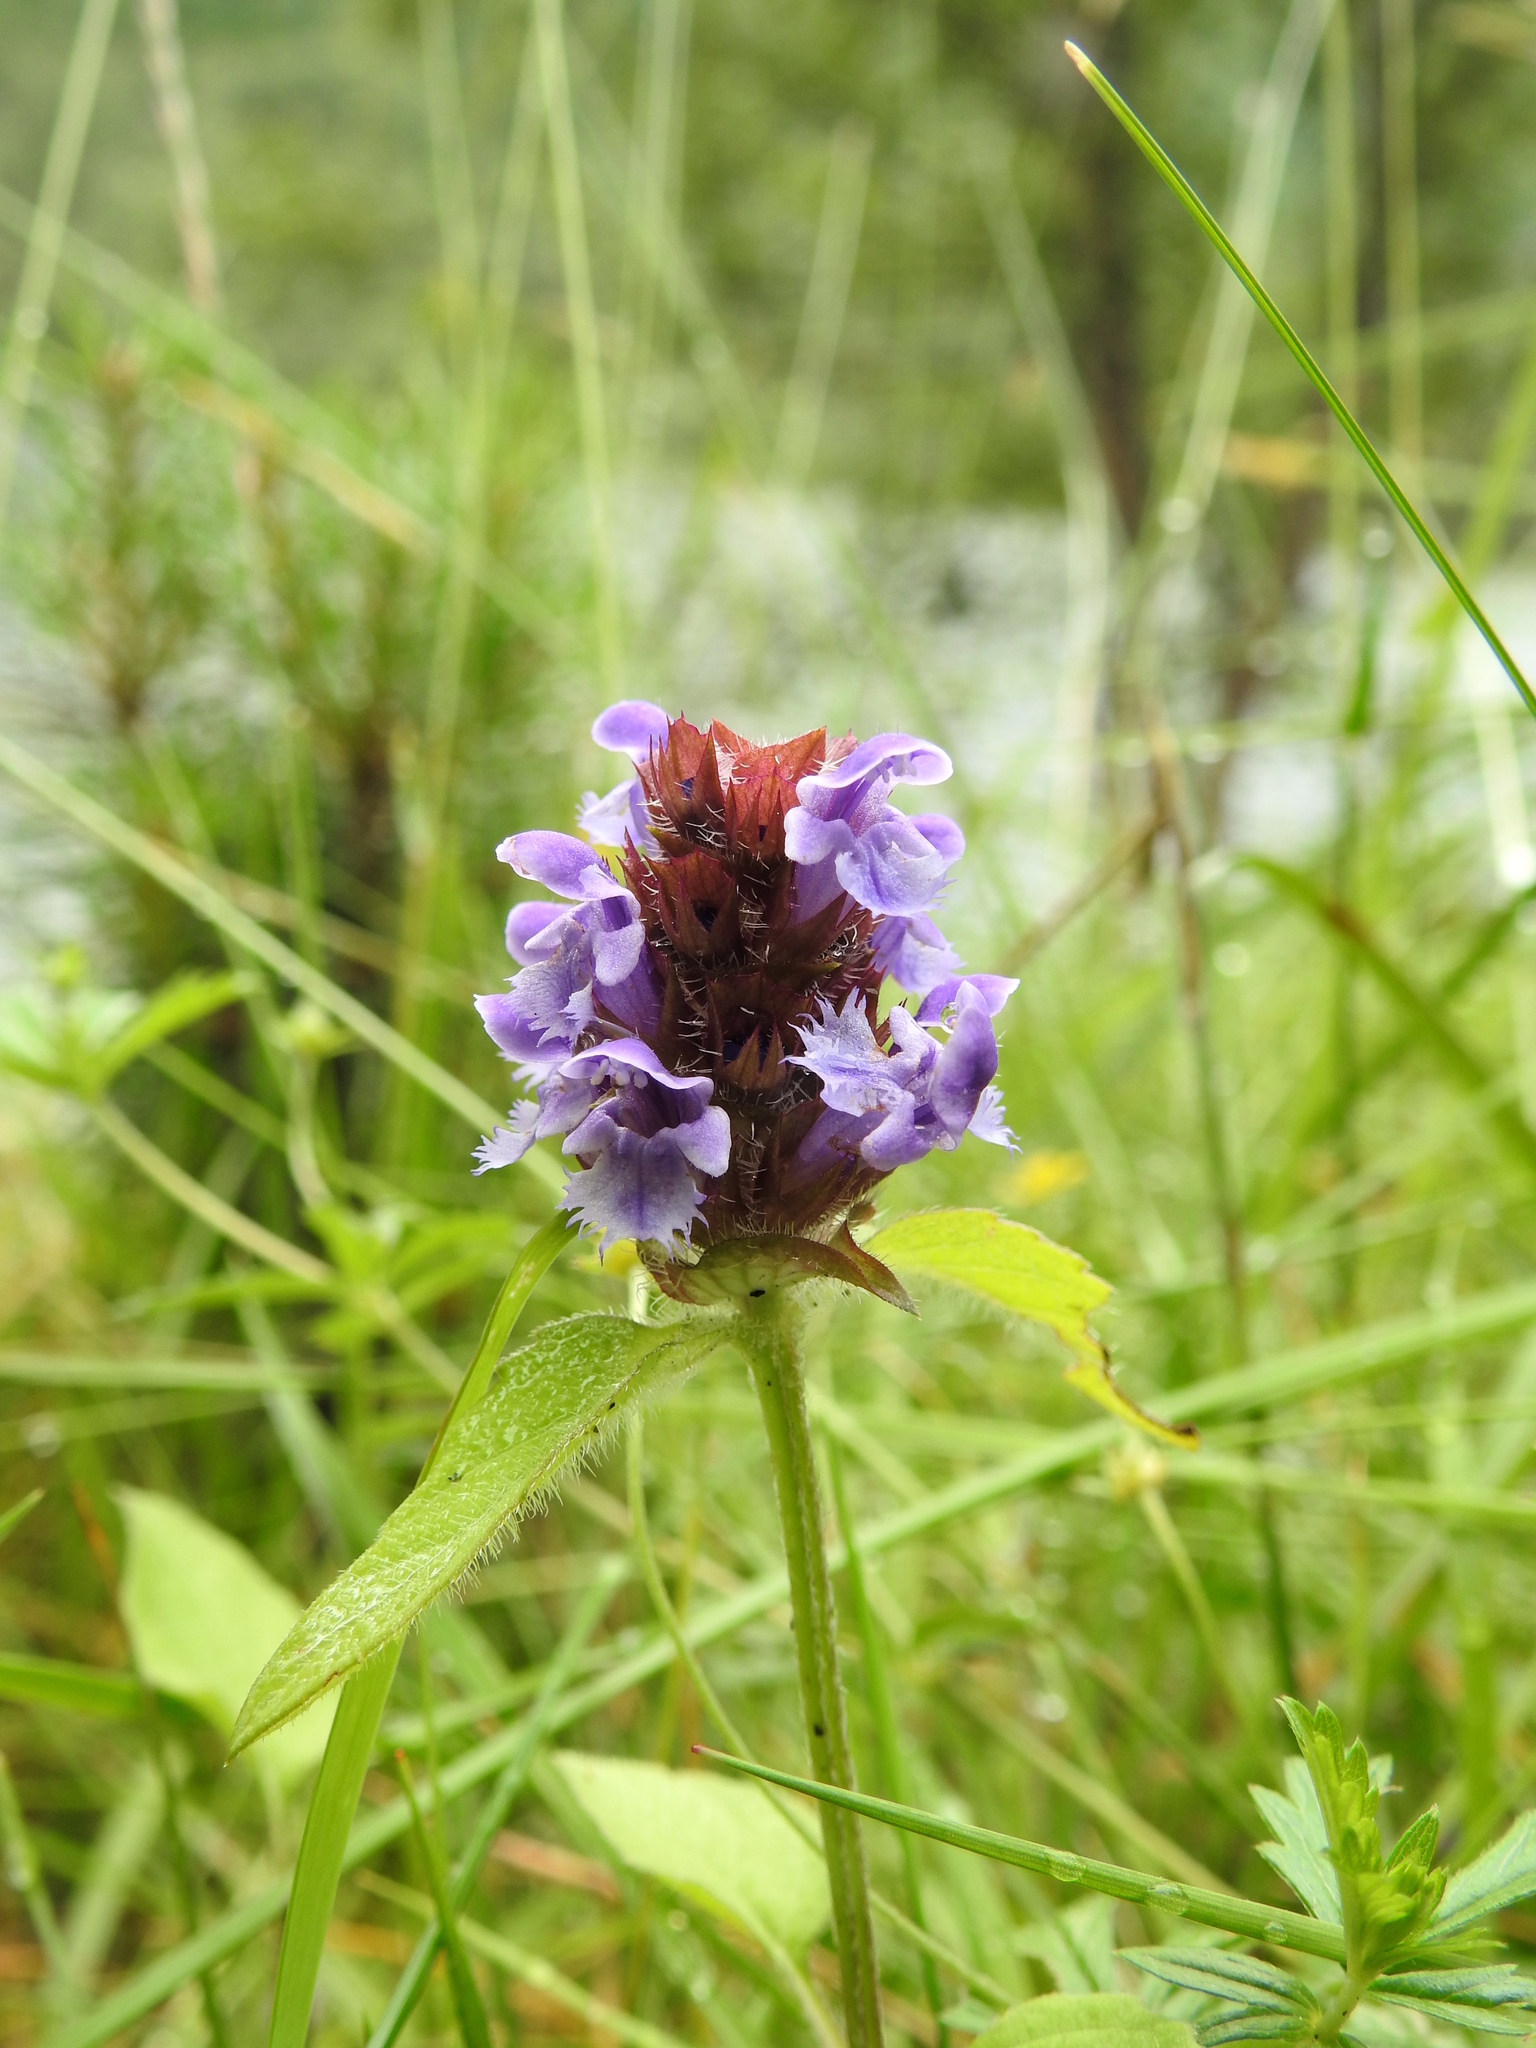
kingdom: Plantae
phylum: Tracheophyta
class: Magnoliopsida
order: Lamiales
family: Lamiaceae
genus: Prunella
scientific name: Prunella vulgaris
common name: Heal-all
